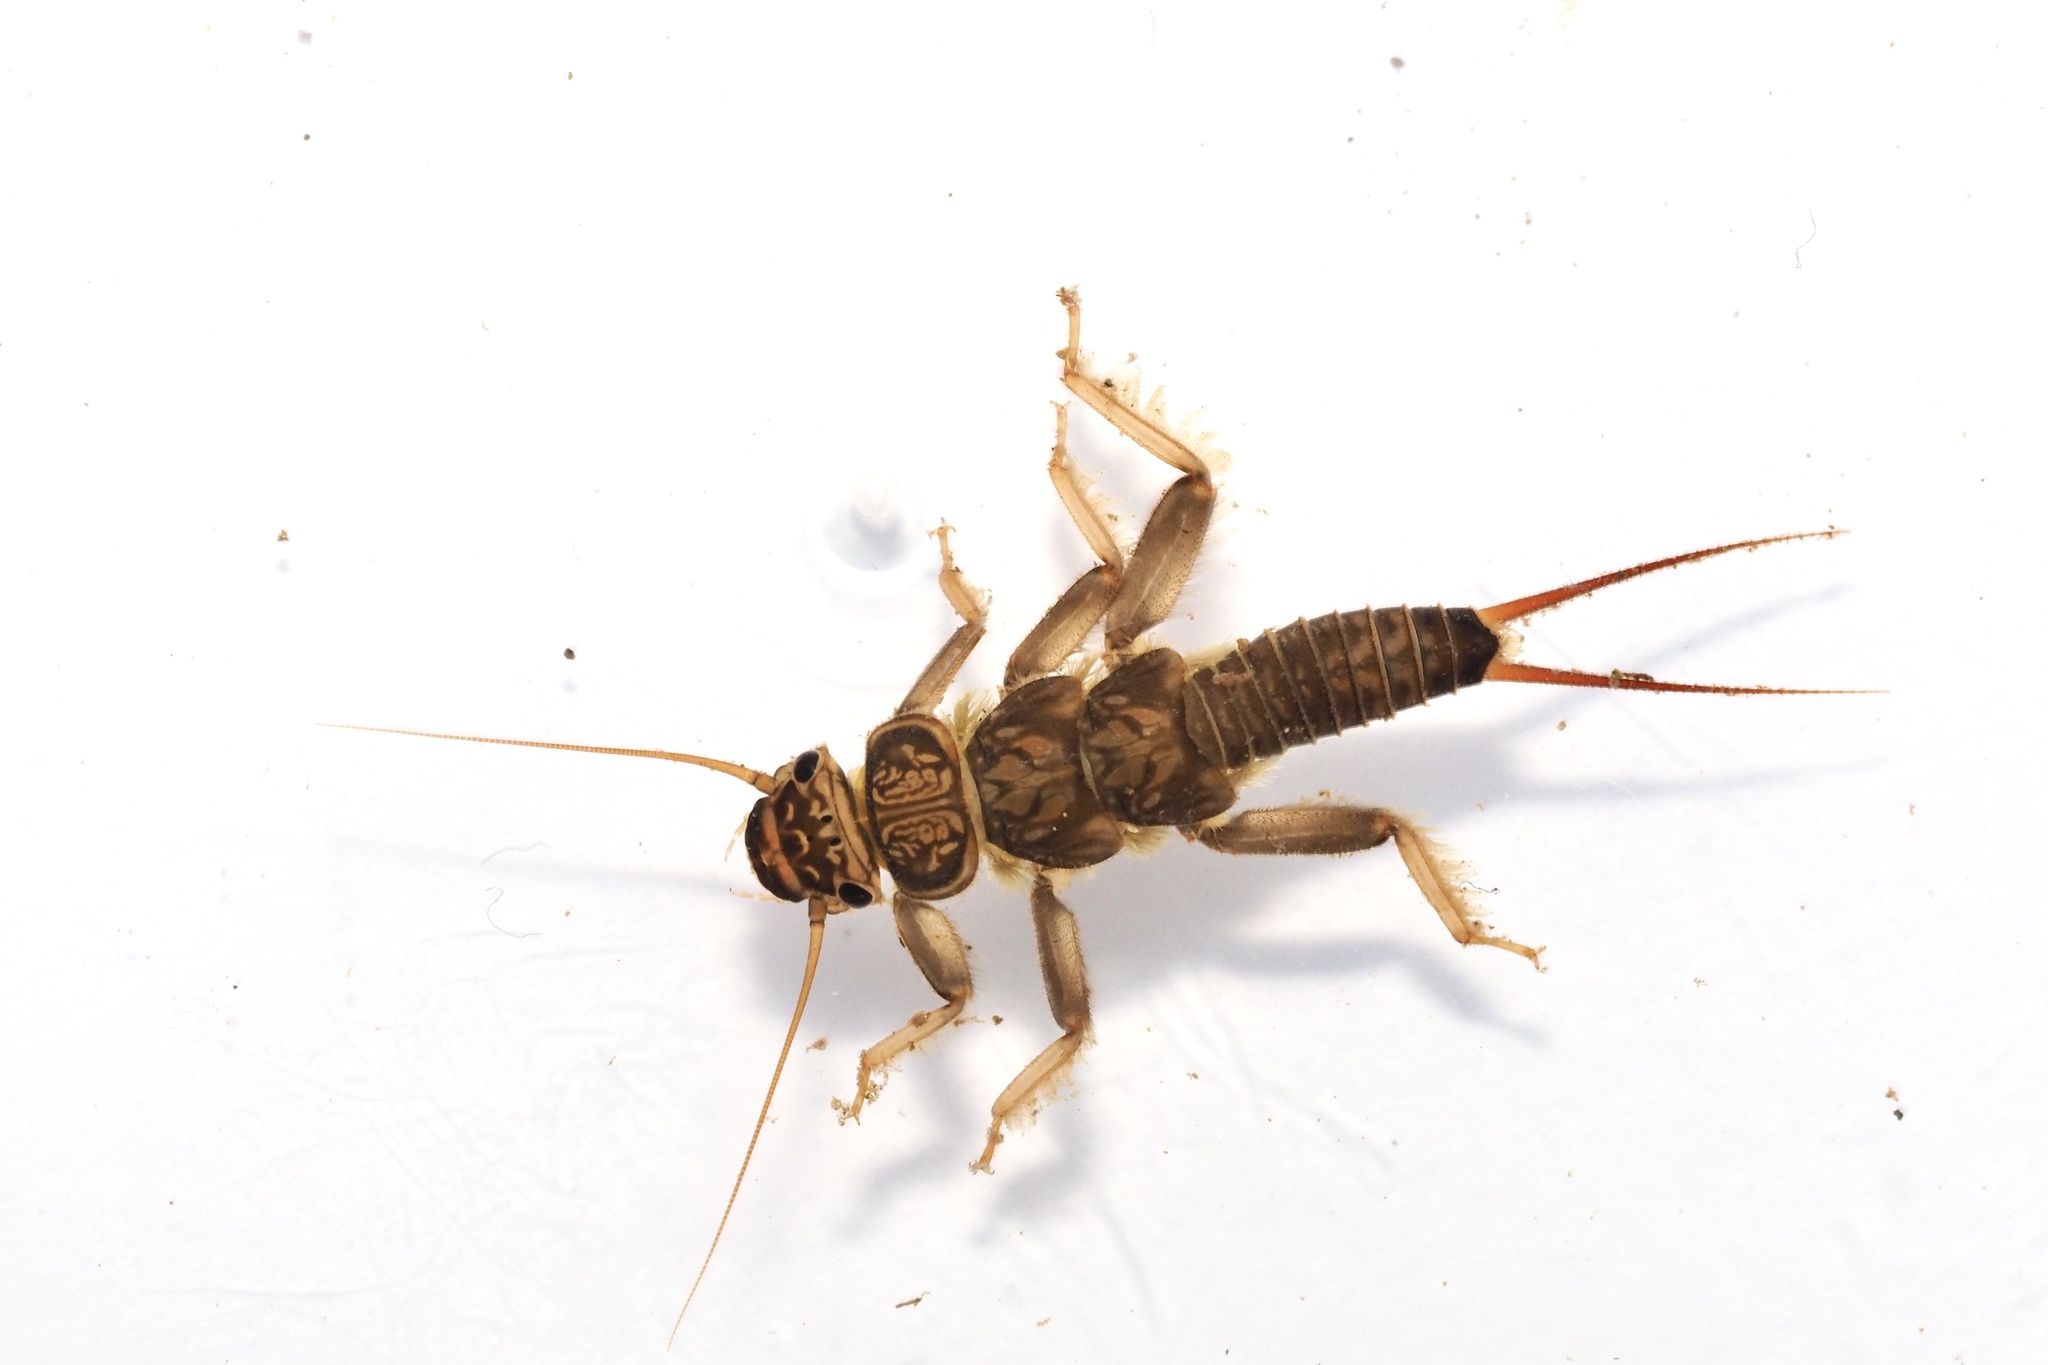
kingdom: Animalia
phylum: Arthropoda
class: Insecta
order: Plecoptera
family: Perlidae
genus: Oyamia
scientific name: Oyamia cryptomeria
